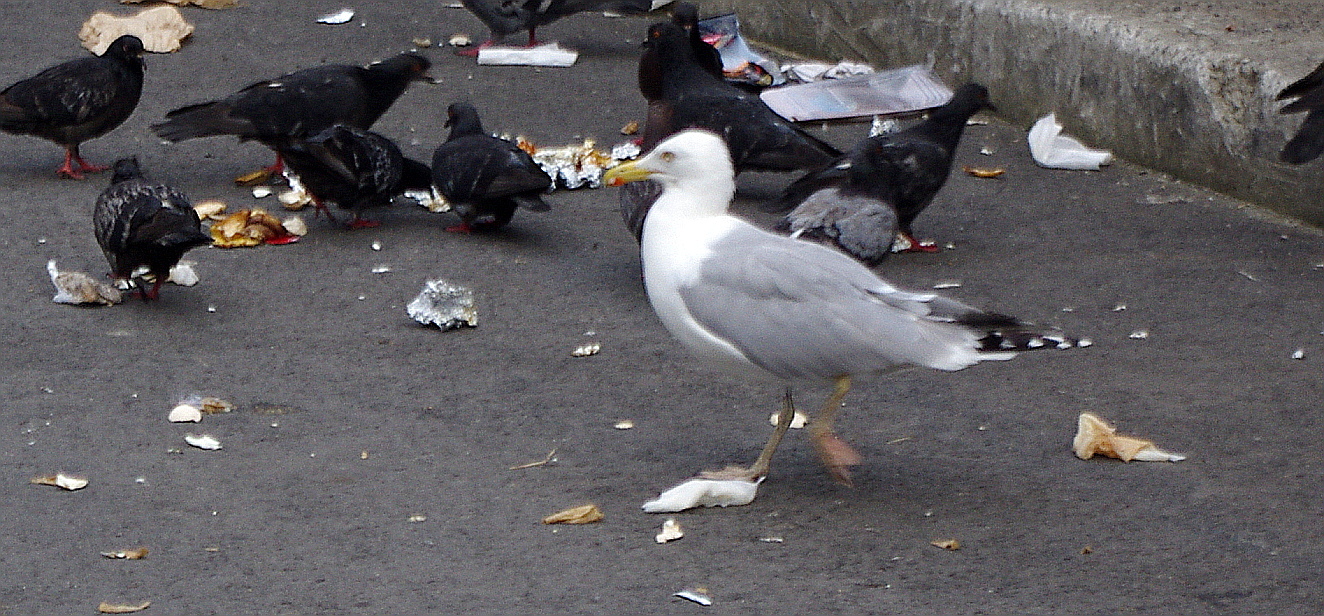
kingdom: Animalia
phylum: Chordata
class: Aves
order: Charadriiformes
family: Laridae
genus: Larus
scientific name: Larus argentatus
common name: Herring gull
